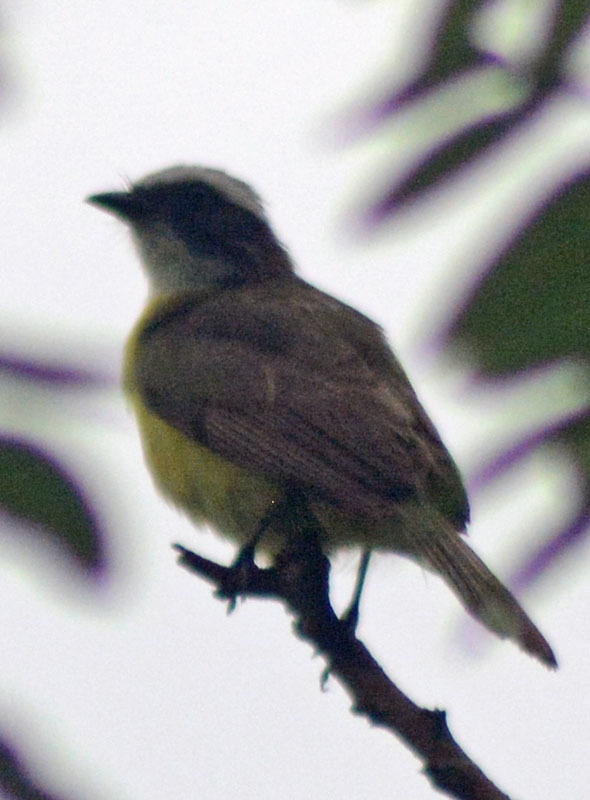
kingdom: Animalia
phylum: Chordata
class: Aves
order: Passeriformes
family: Tyrannidae
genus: Myiozetetes
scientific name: Myiozetetes similis
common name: Social flycatcher
